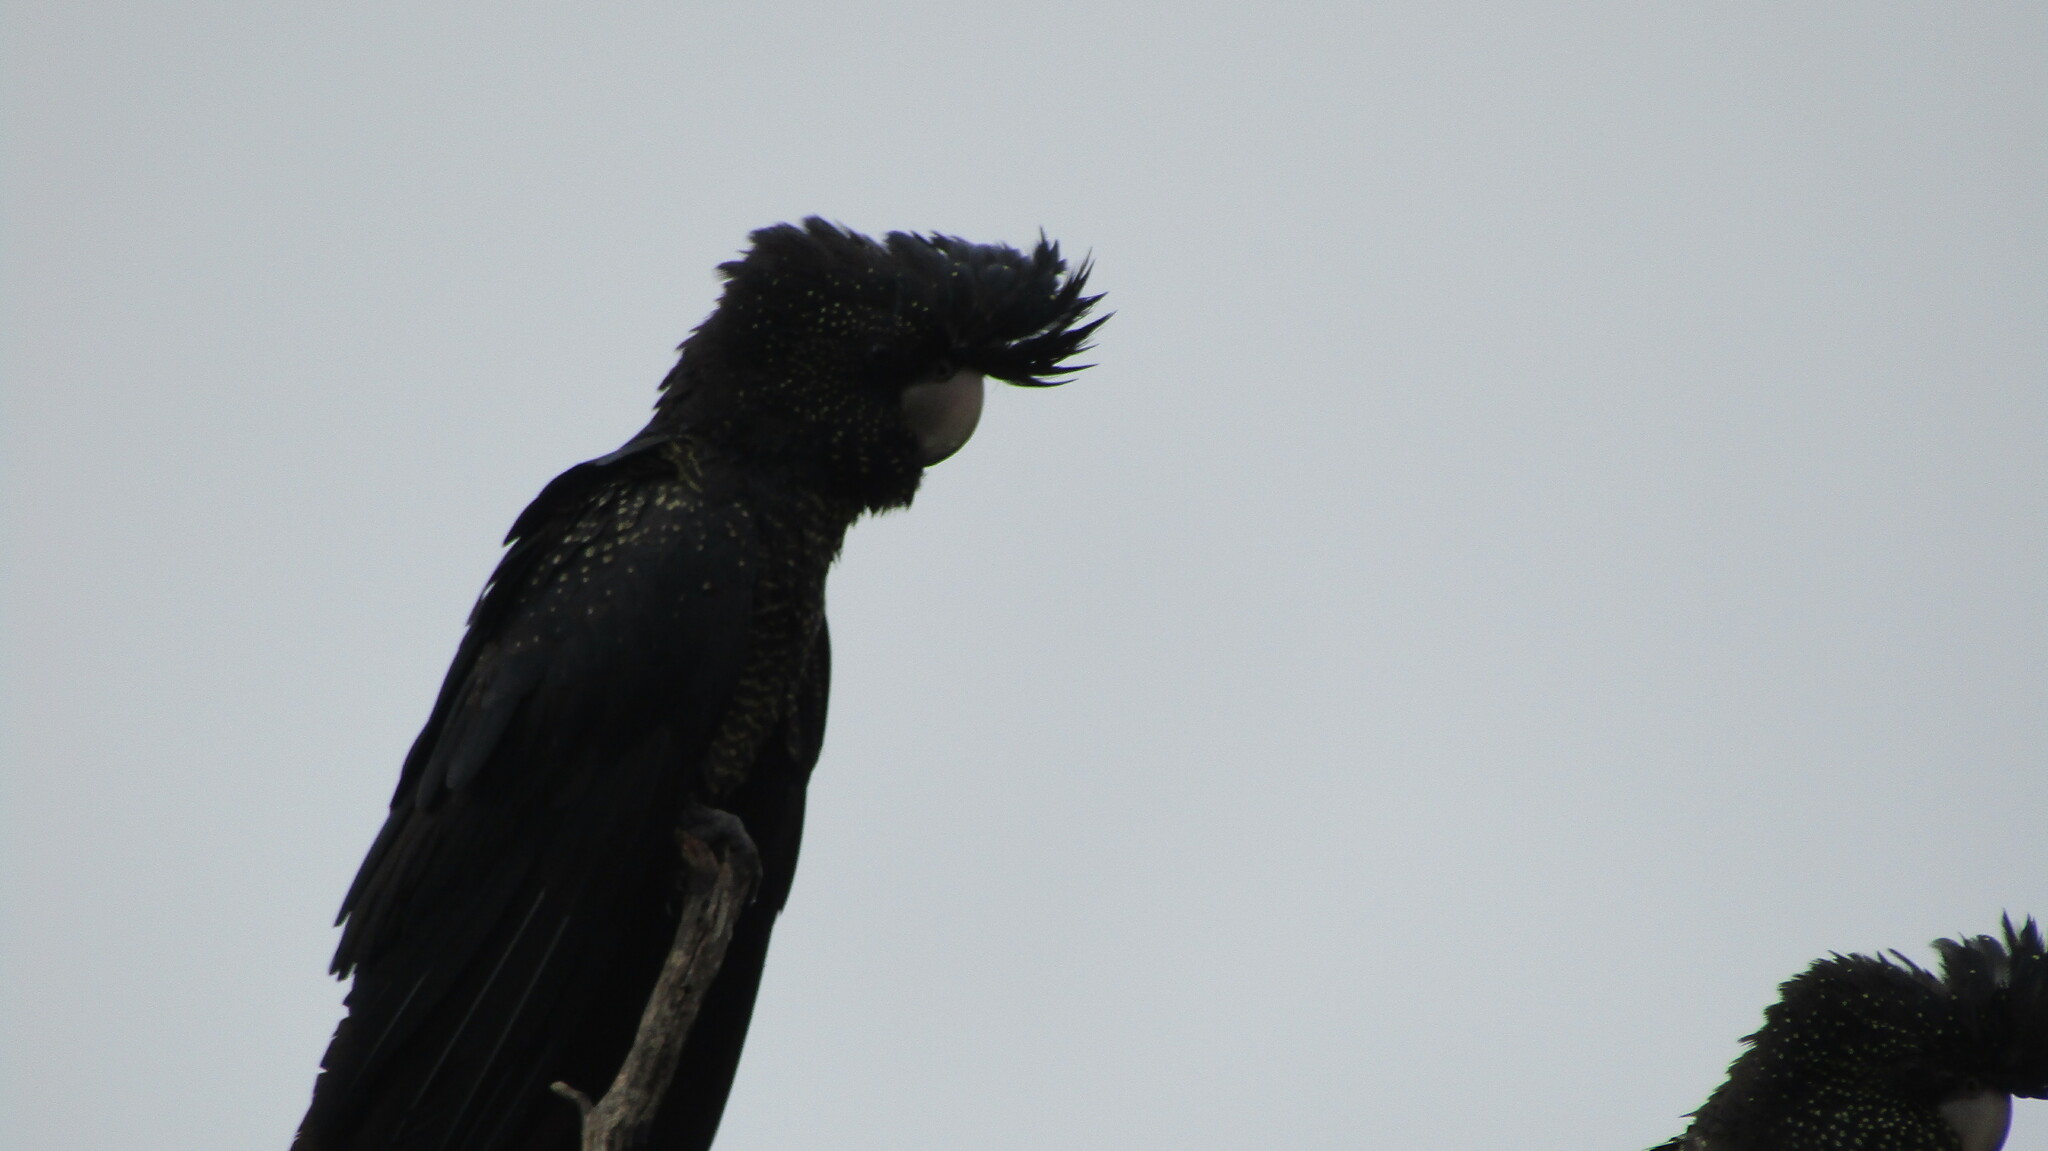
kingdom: Animalia
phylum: Chordata
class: Aves
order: Psittaciformes
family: Psittacidae
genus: Calyptorhynchus
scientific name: Calyptorhynchus banksii
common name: Red-tailed black cockatoo
